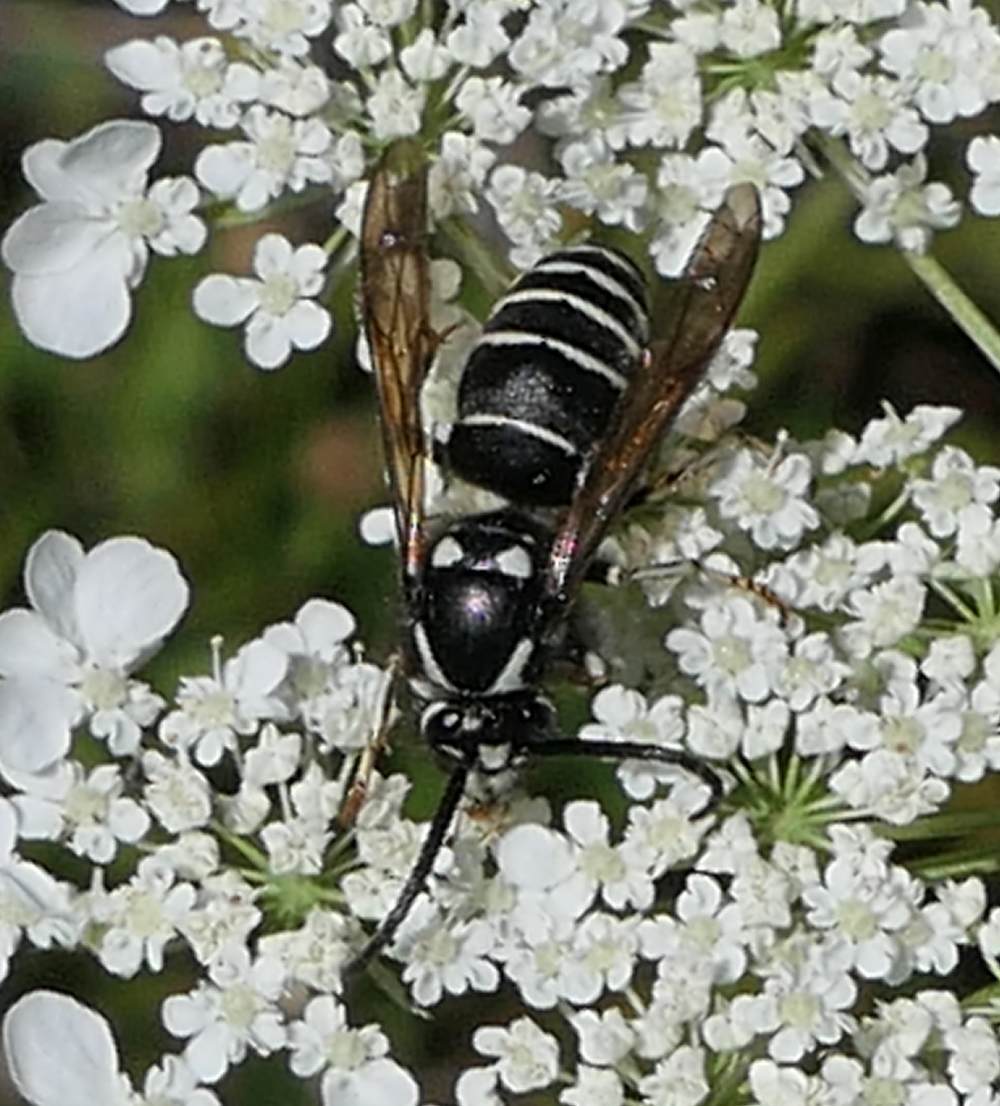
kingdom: Animalia
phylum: Arthropoda
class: Insecta
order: Hymenoptera
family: Vespidae
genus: Dolichovespula
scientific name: Dolichovespula adulterina
